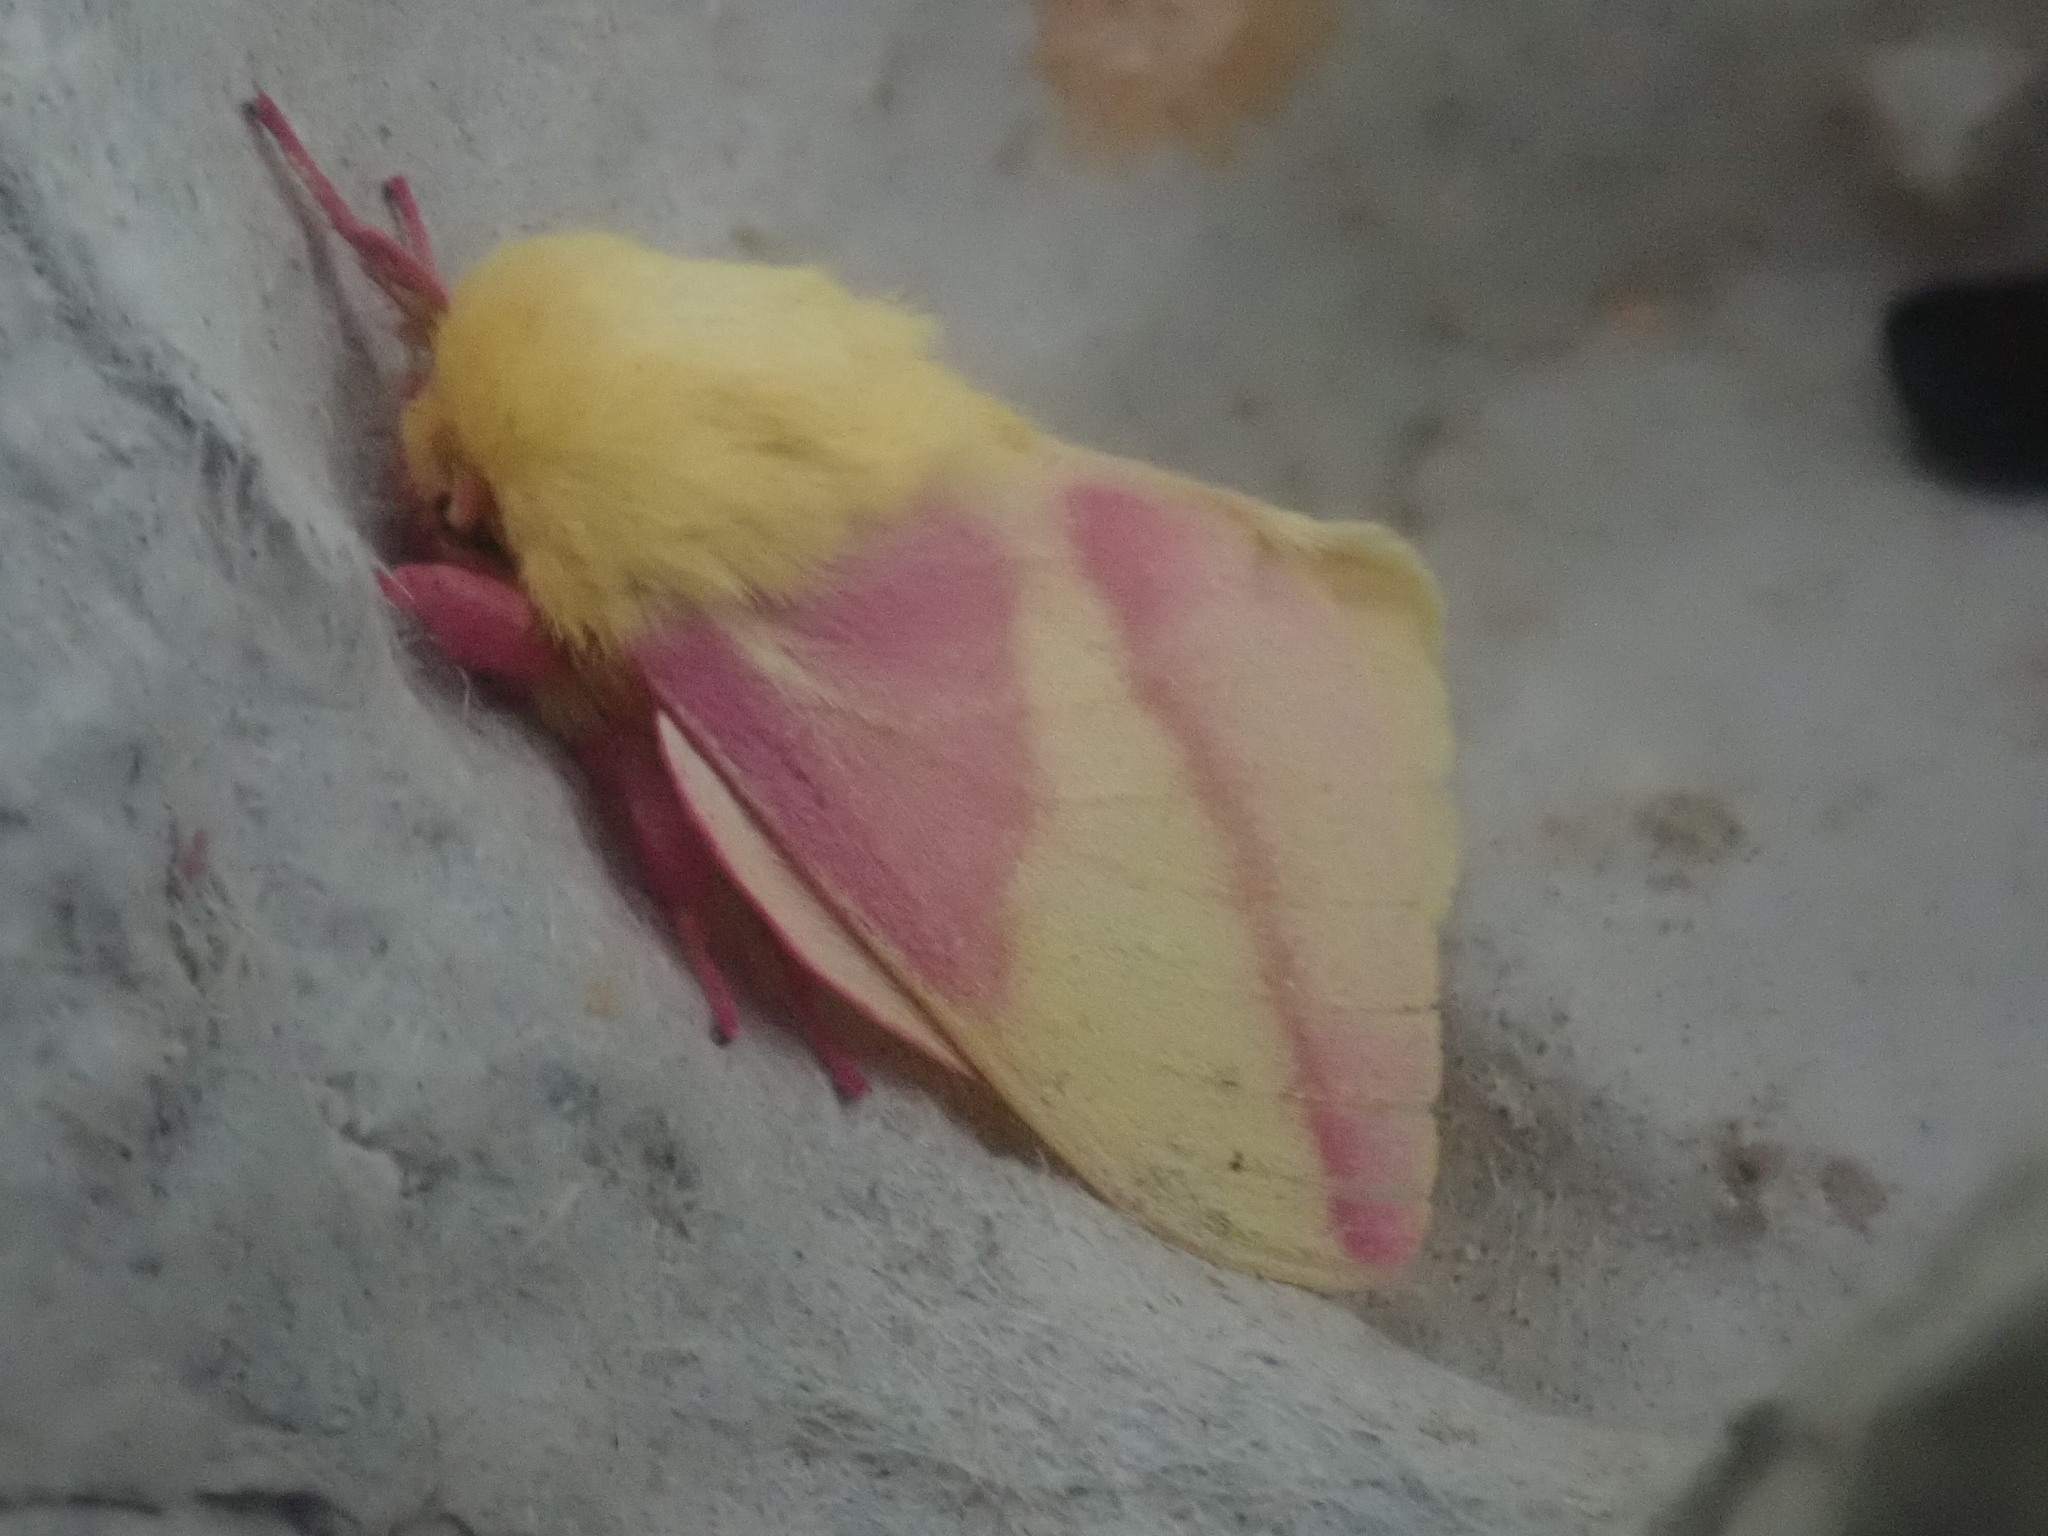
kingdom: Animalia
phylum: Arthropoda
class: Insecta
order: Lepidoptera
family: Saturniidae
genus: Dryocampa
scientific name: Dryocampa rubicunda
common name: Rosy maple moth
